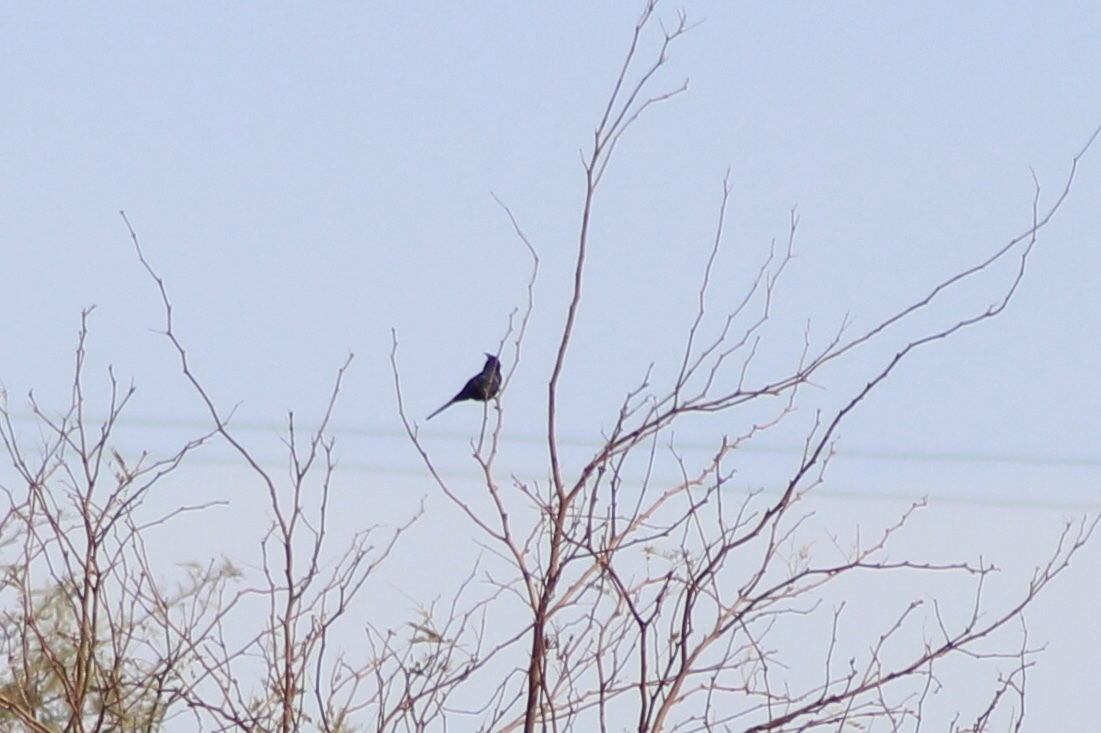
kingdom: Animalia
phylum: Chordata
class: Aves
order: Passeriformes
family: Ptilogonatidae
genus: Phainopepla
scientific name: Phainopepla nitens
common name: Phainopepla
